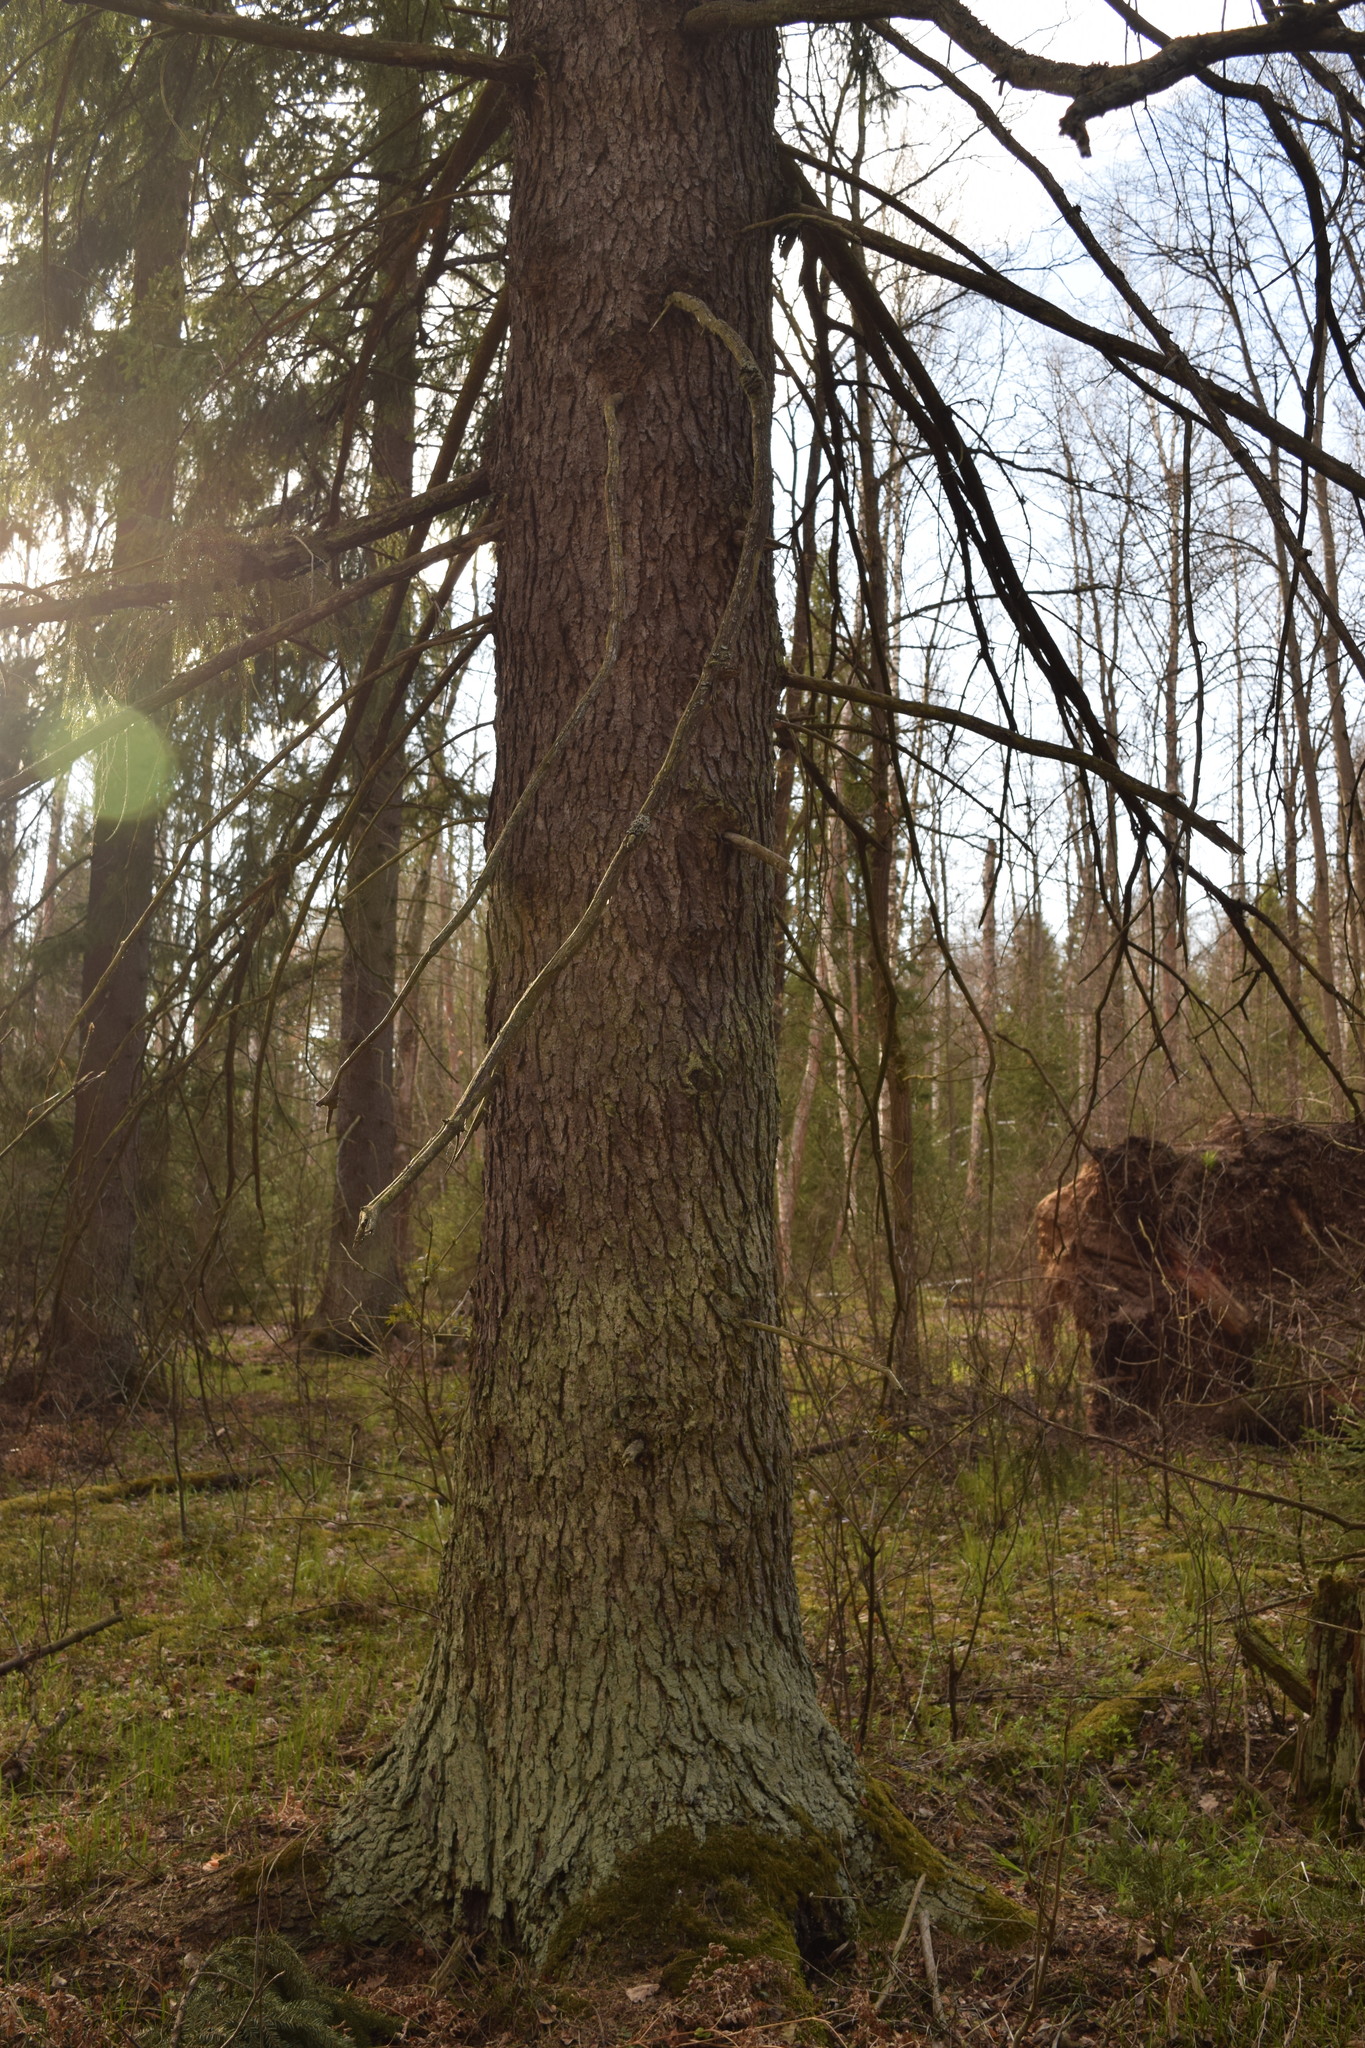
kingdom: Plantae
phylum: Tracheophyta
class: Pinopsida
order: Pinales
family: Pinaceae
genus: Picea
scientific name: Picea abies
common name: Norway spruce
